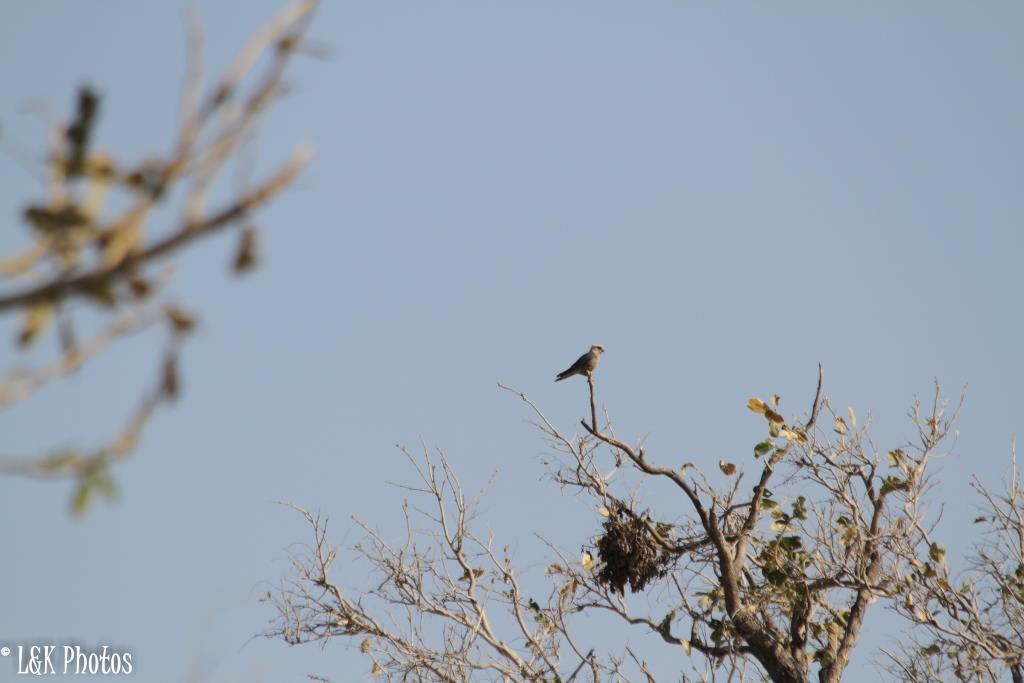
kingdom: Animalia
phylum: Chordata
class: Aves
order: Falconiformes
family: Falconidae
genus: Falco
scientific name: Falco dickinsoni
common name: Dickinson's kestrel
